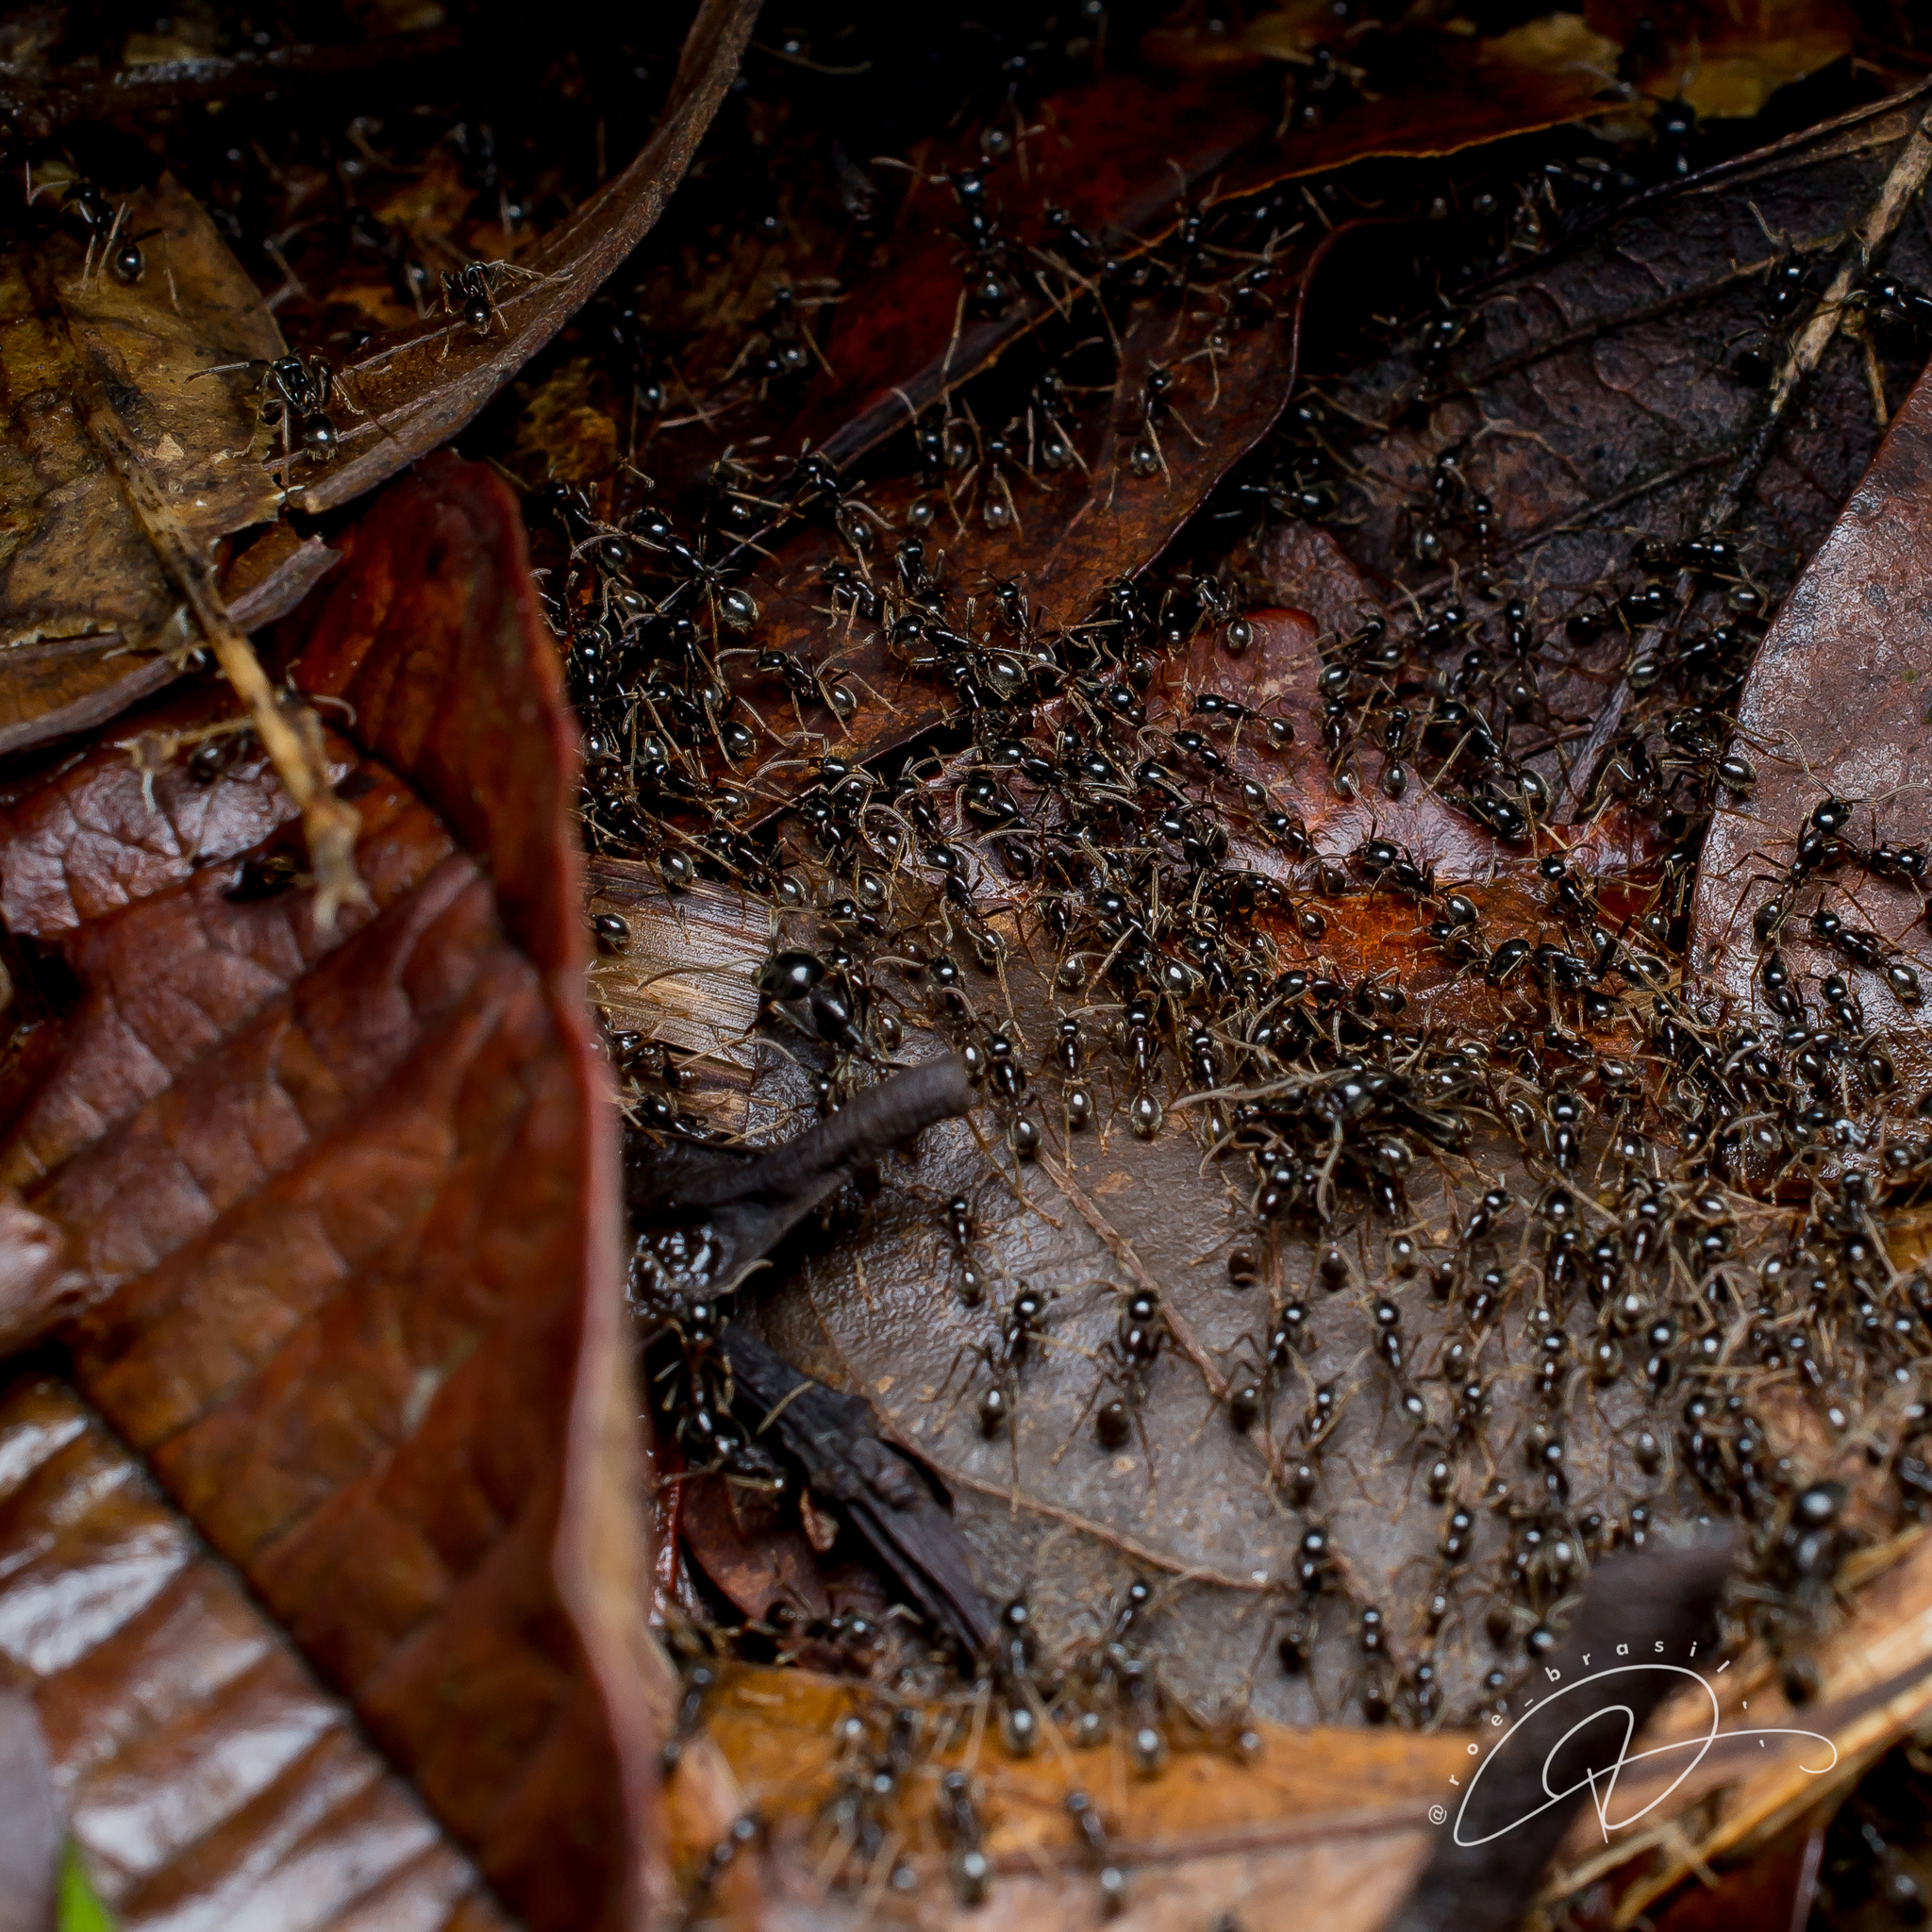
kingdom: Animalia
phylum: Arthropoda
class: Insecta
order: Hymenoptera
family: Formicidae
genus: Labidus
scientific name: Labidus praedator
